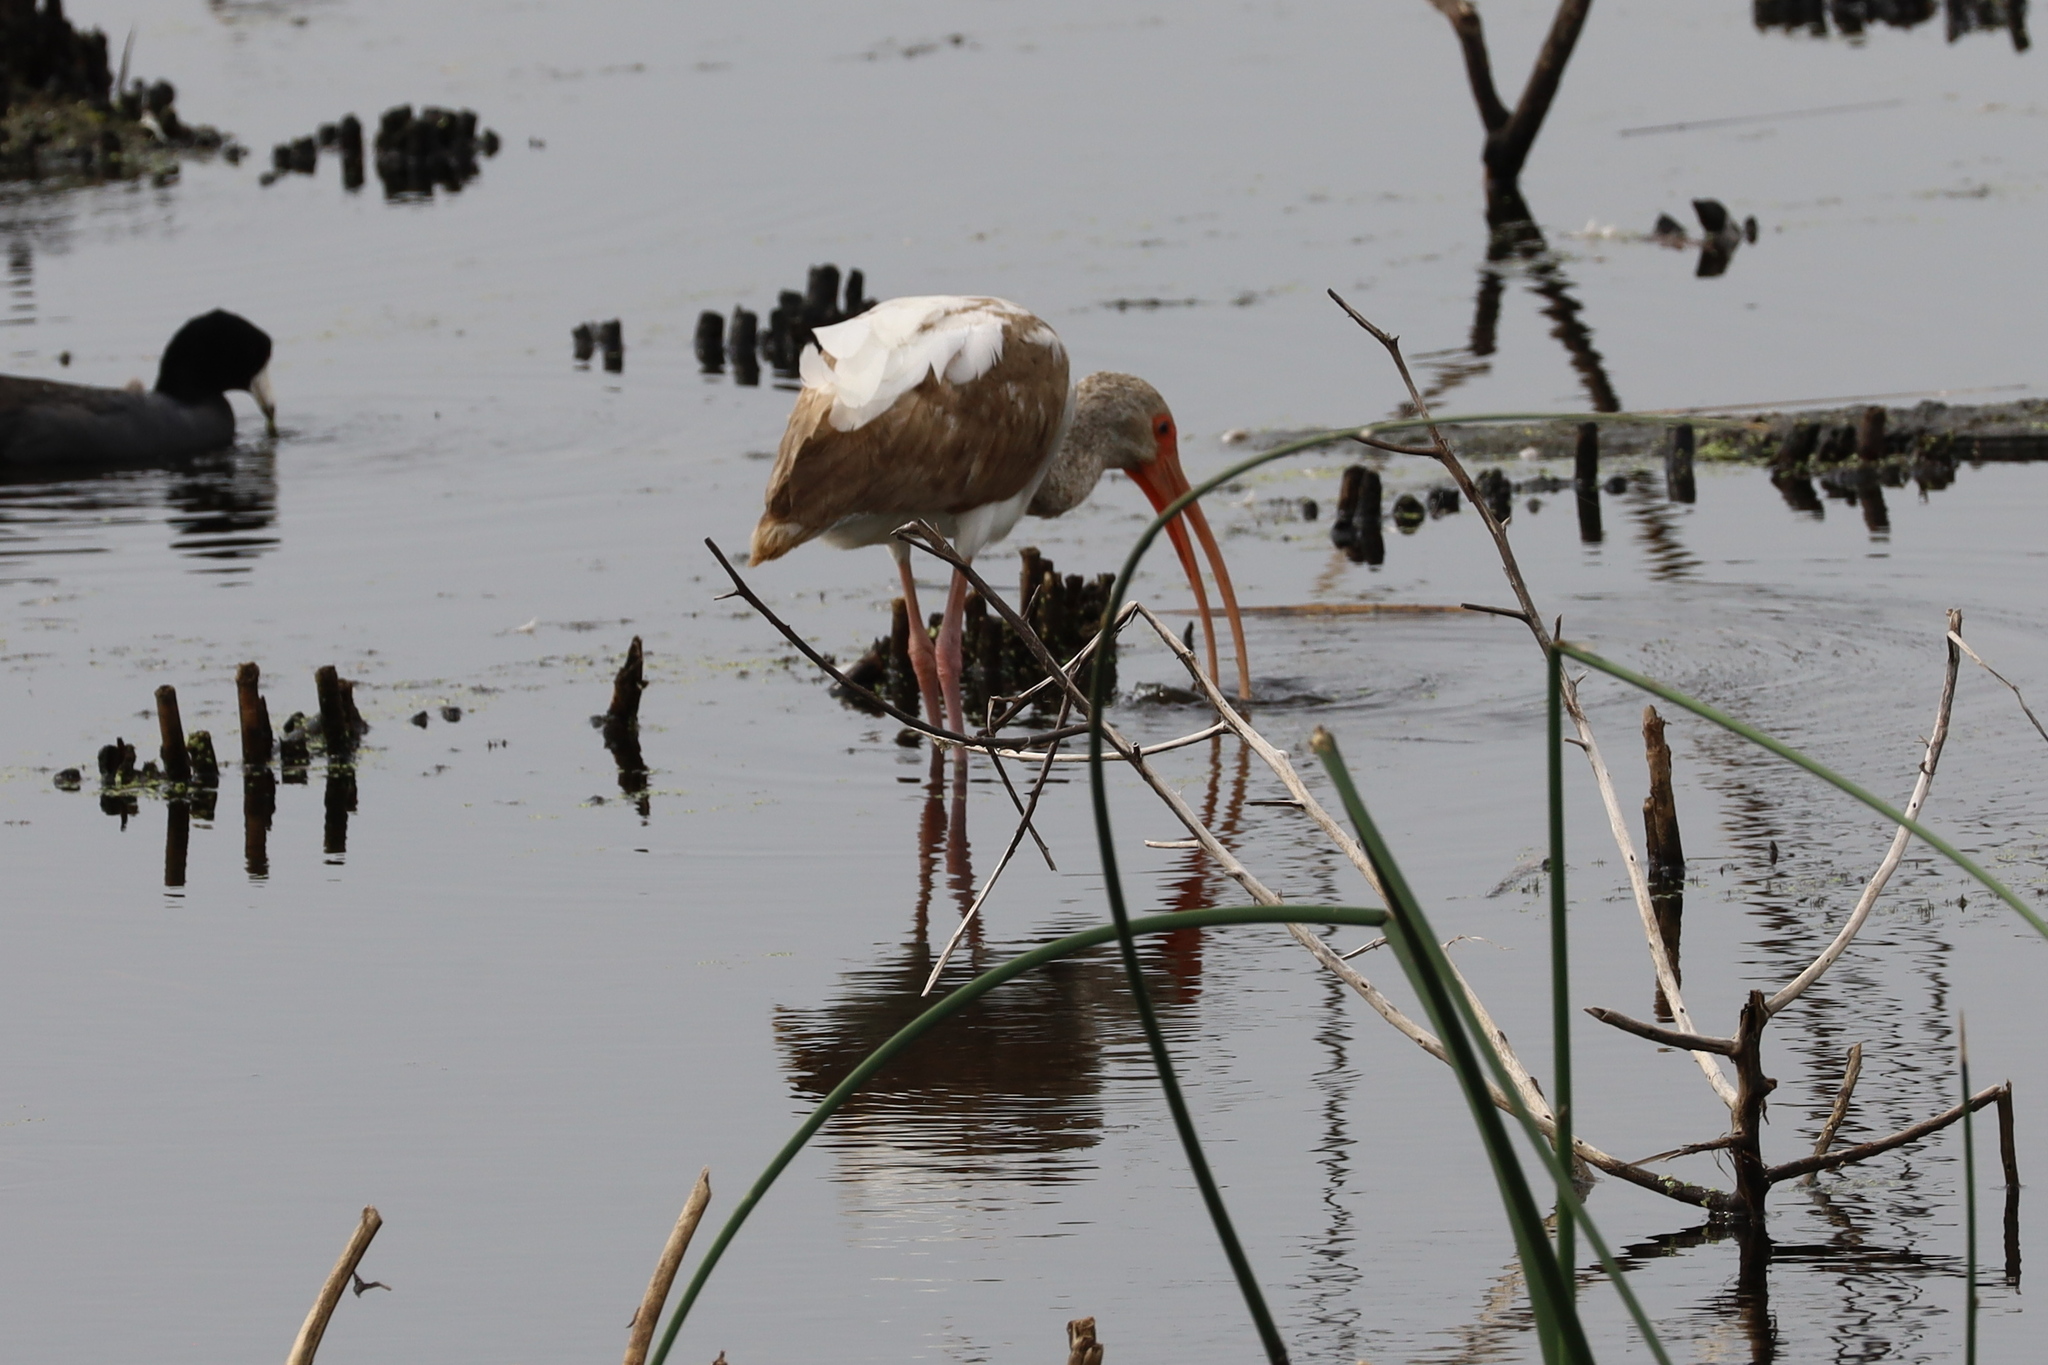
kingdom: Animalia
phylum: Chordata
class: Aves
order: Pelecaniformes
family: Threskiornithidae
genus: Eudocimus
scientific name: Eudocimus albus
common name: White ibis
